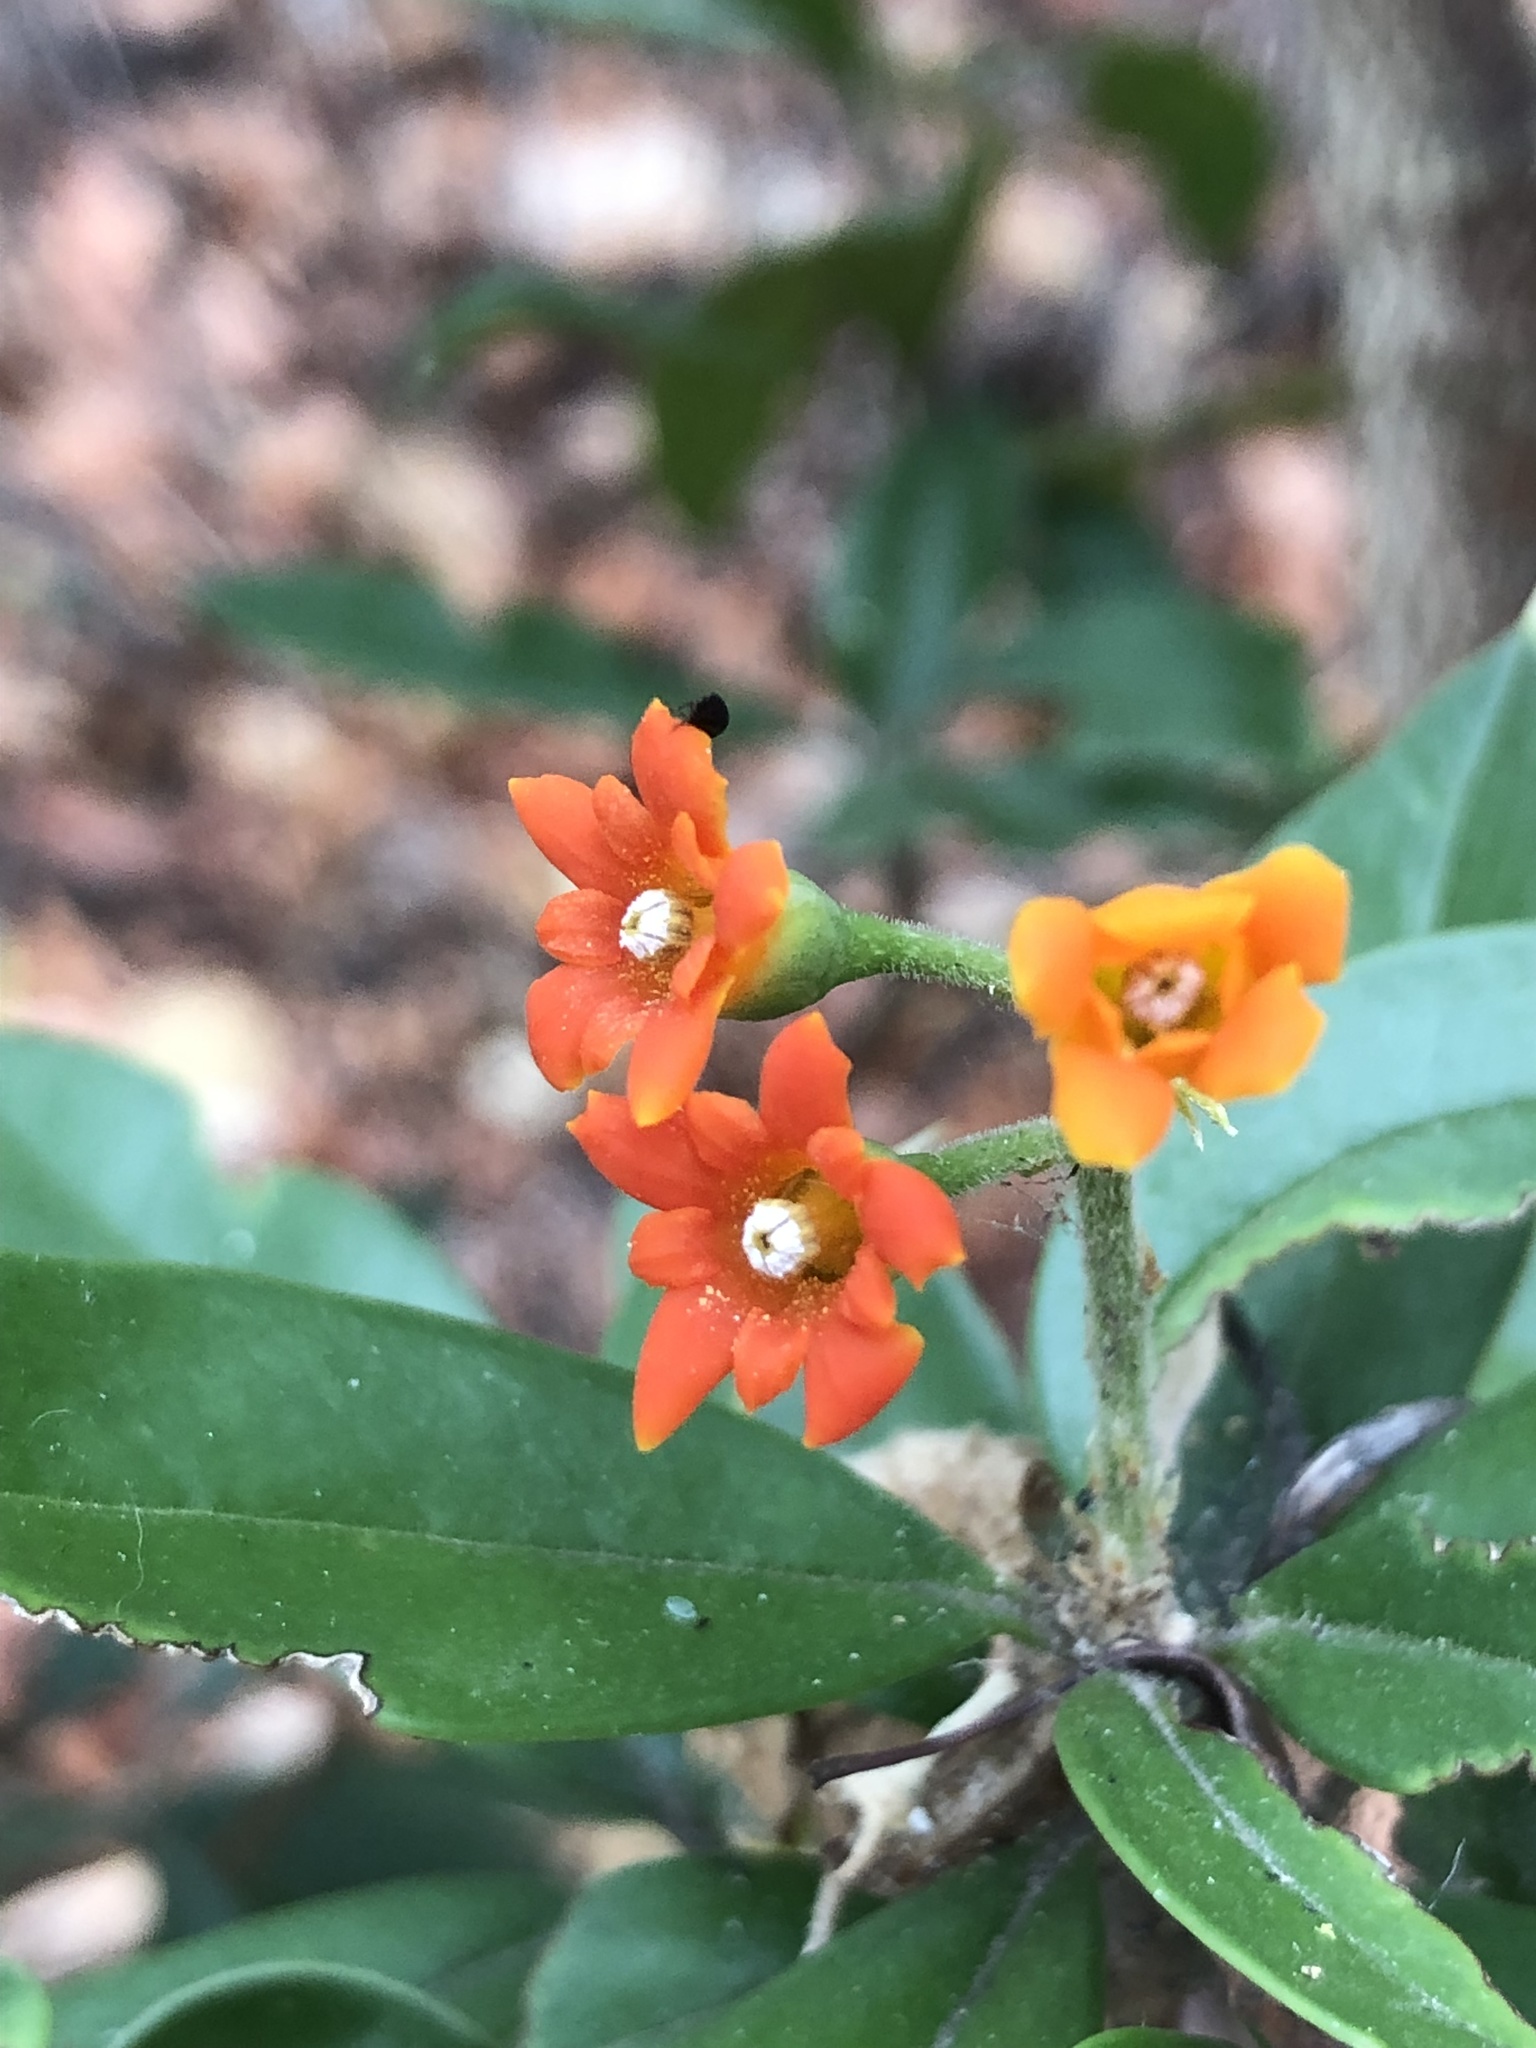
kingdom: Plantae
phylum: Tracheophyta
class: Magnoliopsida
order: Ericales
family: Primulaceae
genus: Bonellia
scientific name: Bonellia macrocarpa
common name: Primrose
